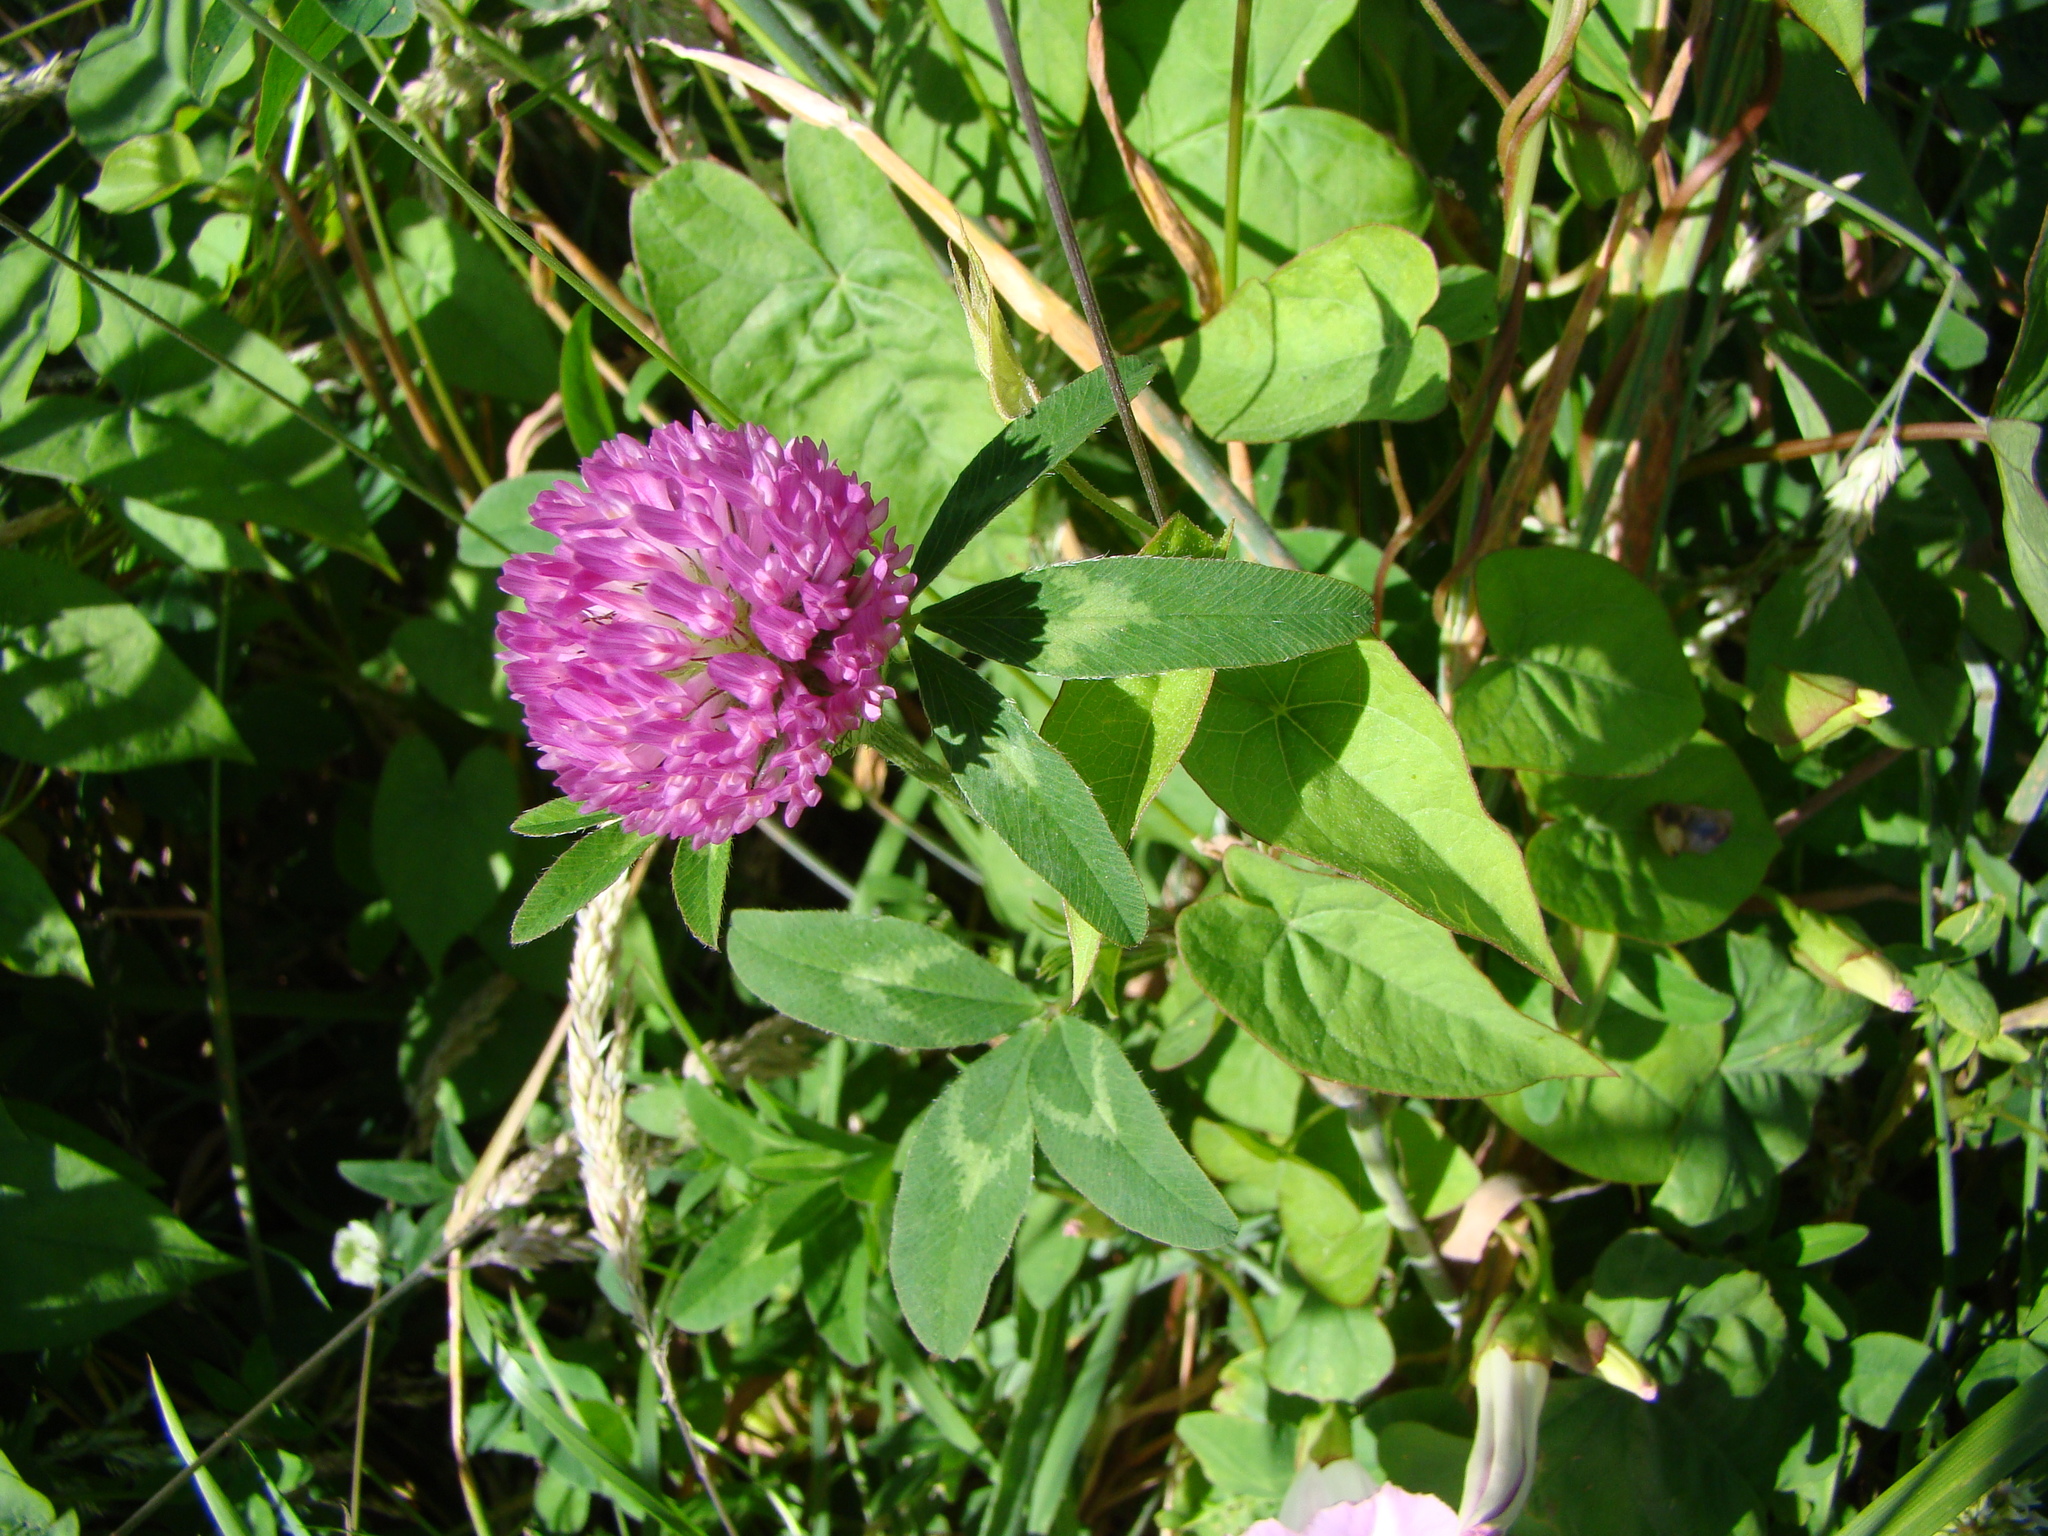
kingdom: Plantae
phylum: Tracheophyta
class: Magnoliopsida
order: Fabales
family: Fabaceae
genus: Trifolium
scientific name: Trifolium pratense
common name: Red clover
